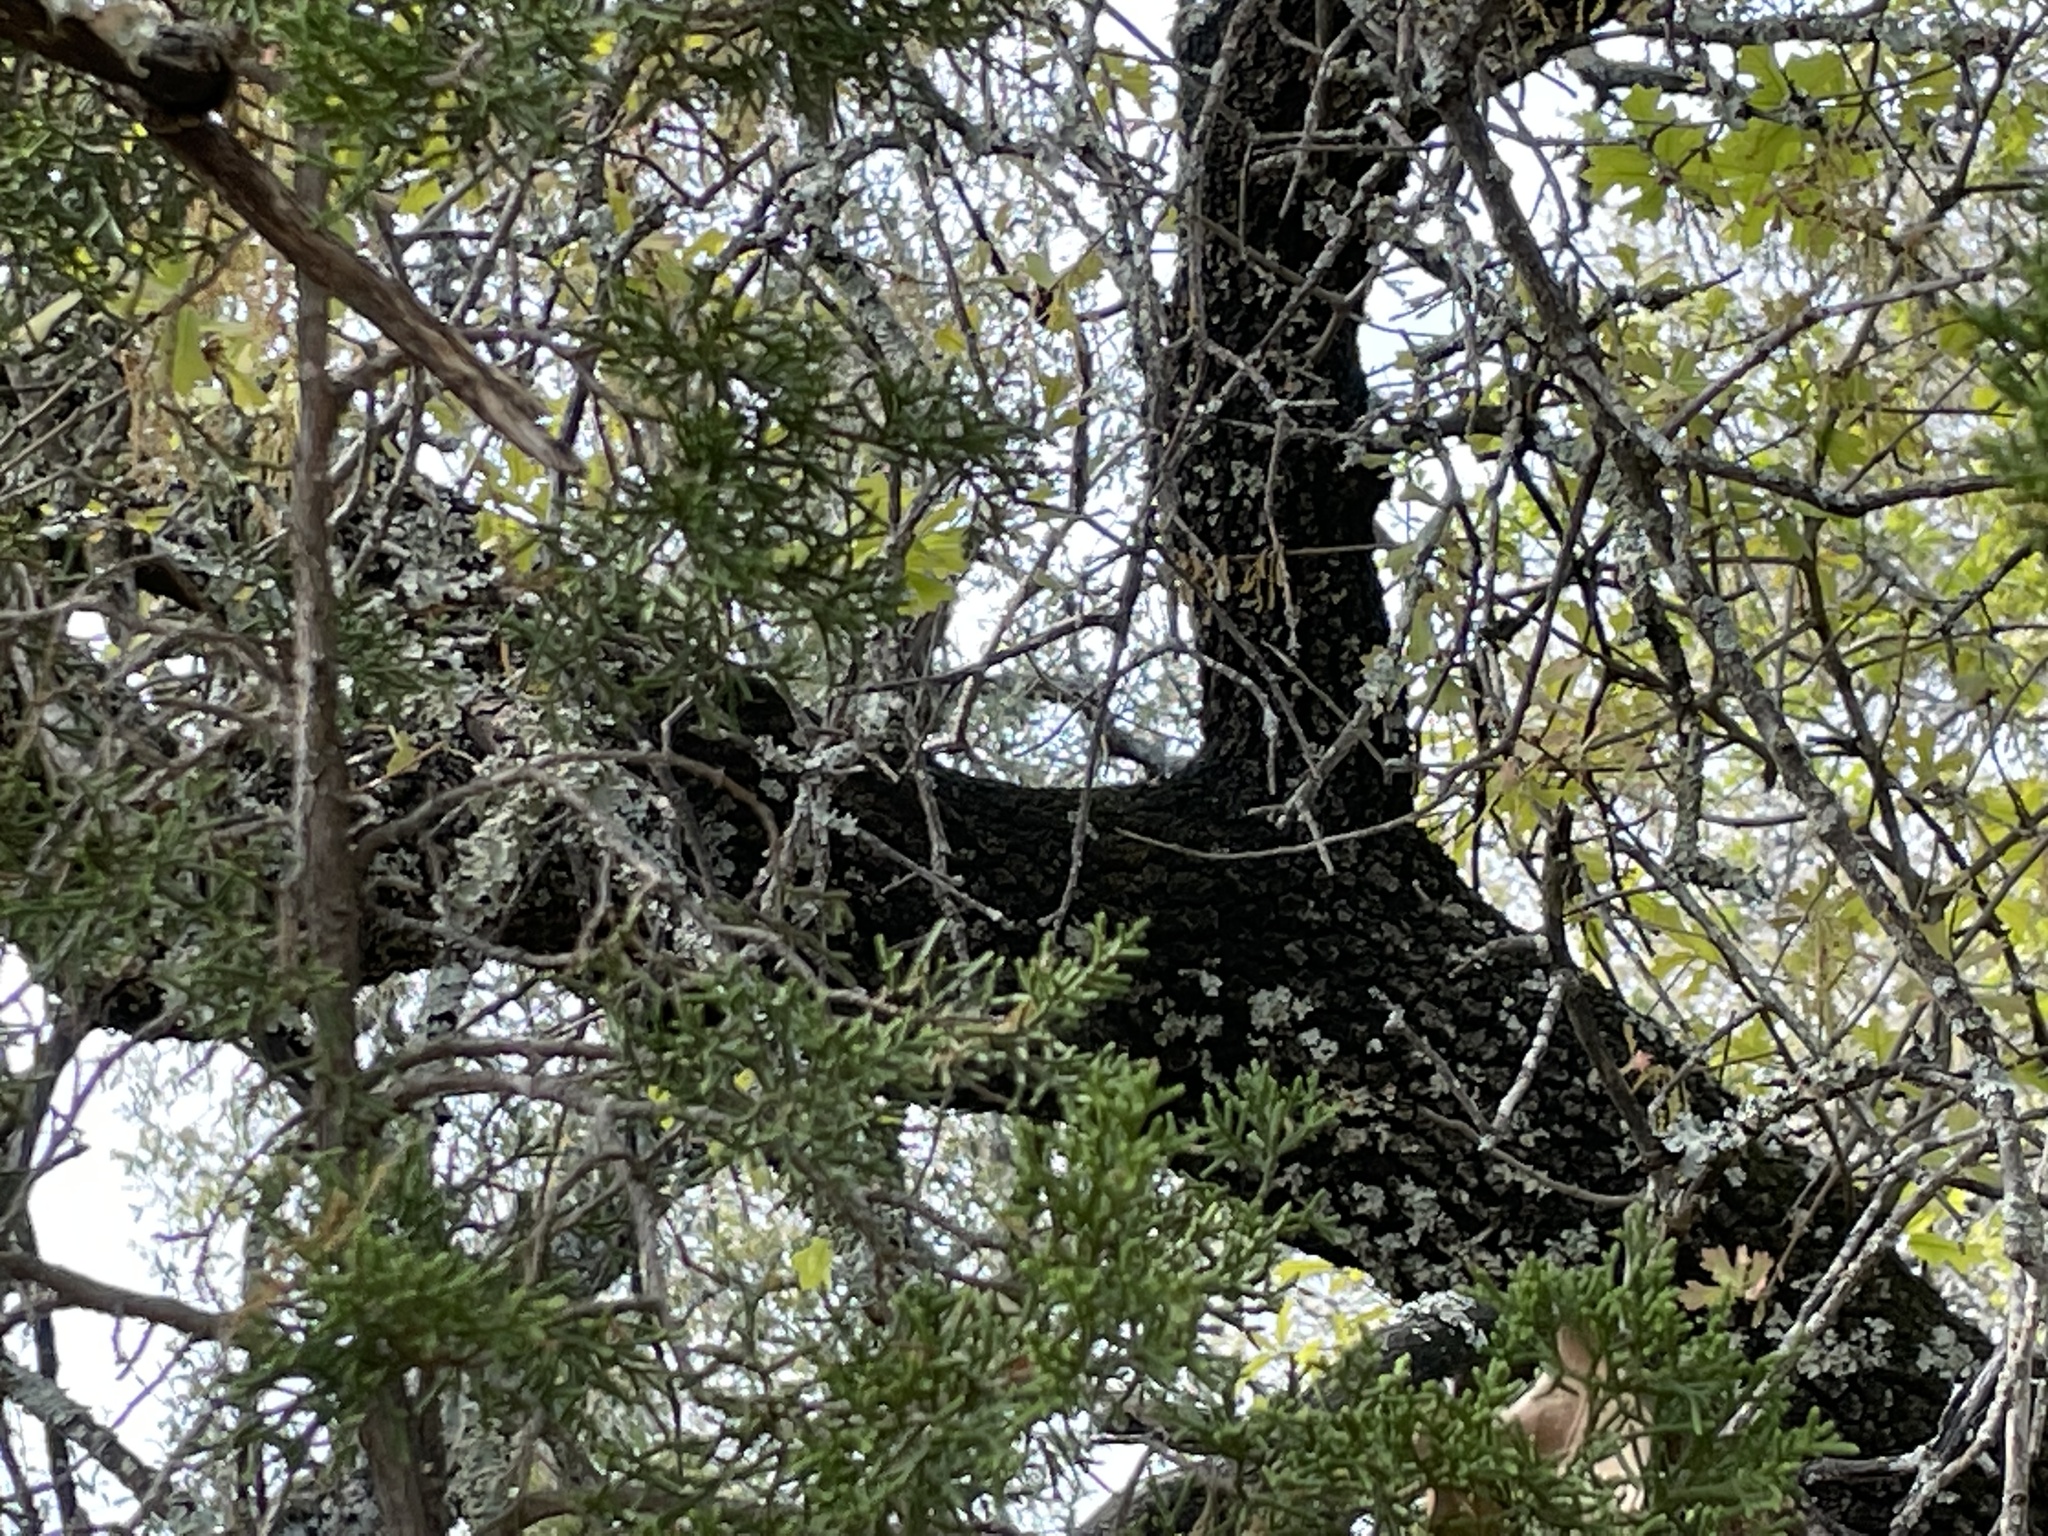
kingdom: Plantae
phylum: Tracheophyta
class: Magnoliopsida
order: Fagales
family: Fagaceae
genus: Quercus
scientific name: Quercus marilandica
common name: Blackjack oak
